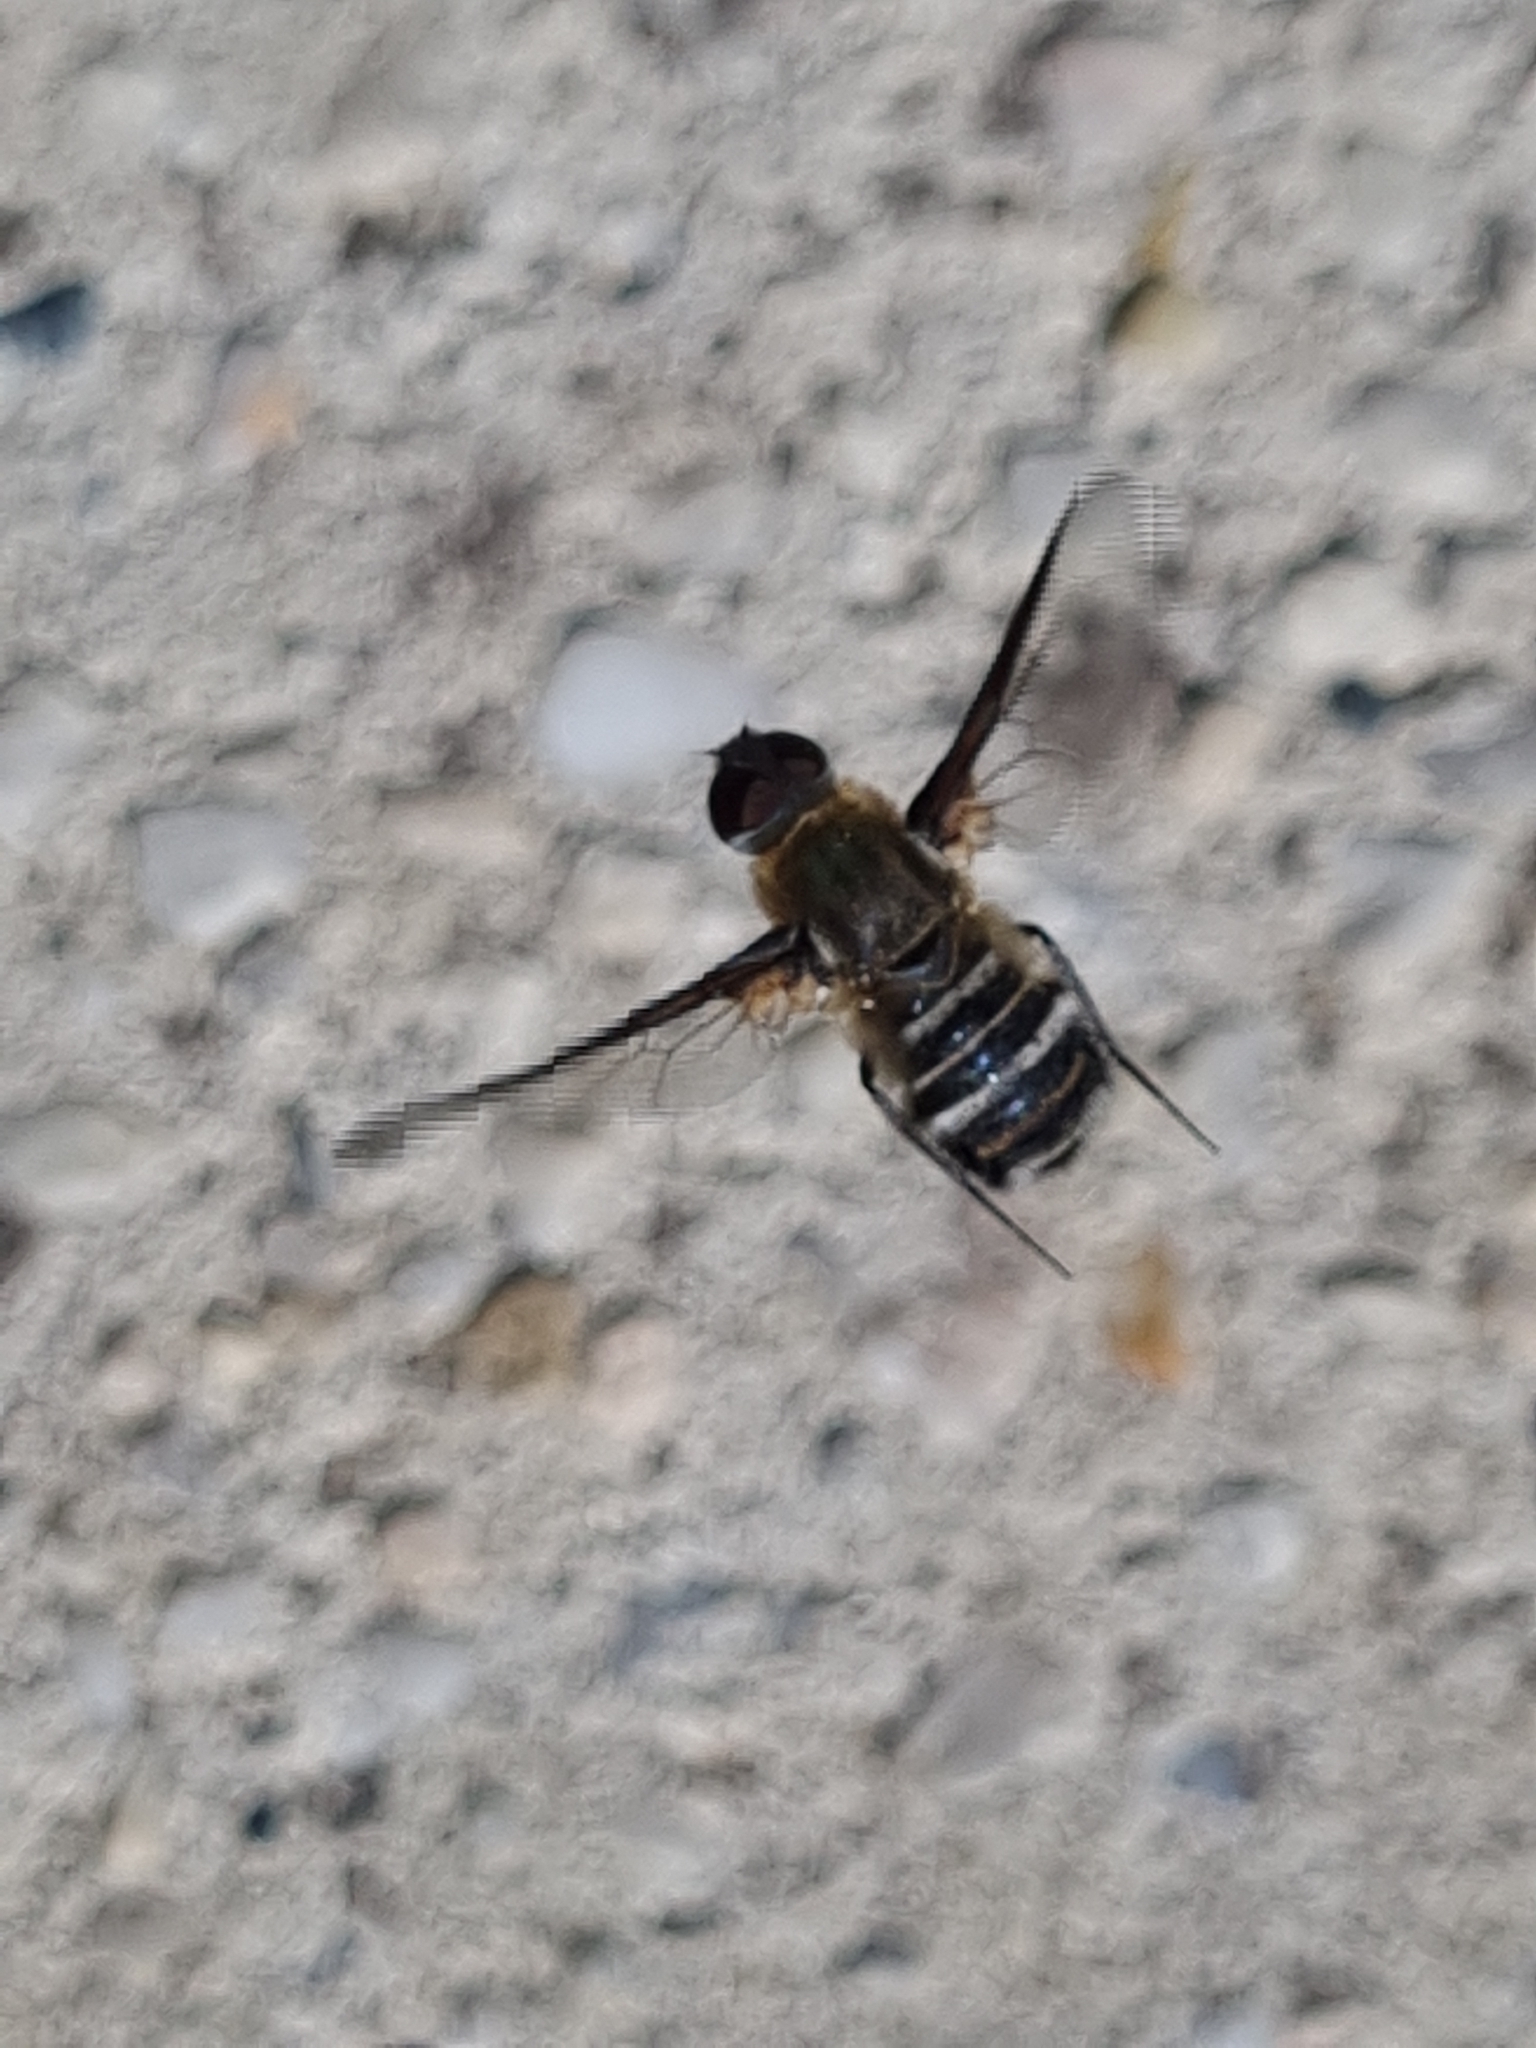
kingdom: Animalia
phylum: Arthropoda
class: Insecta
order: Diptera
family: Bombyliidae
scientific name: Bombyliidae
